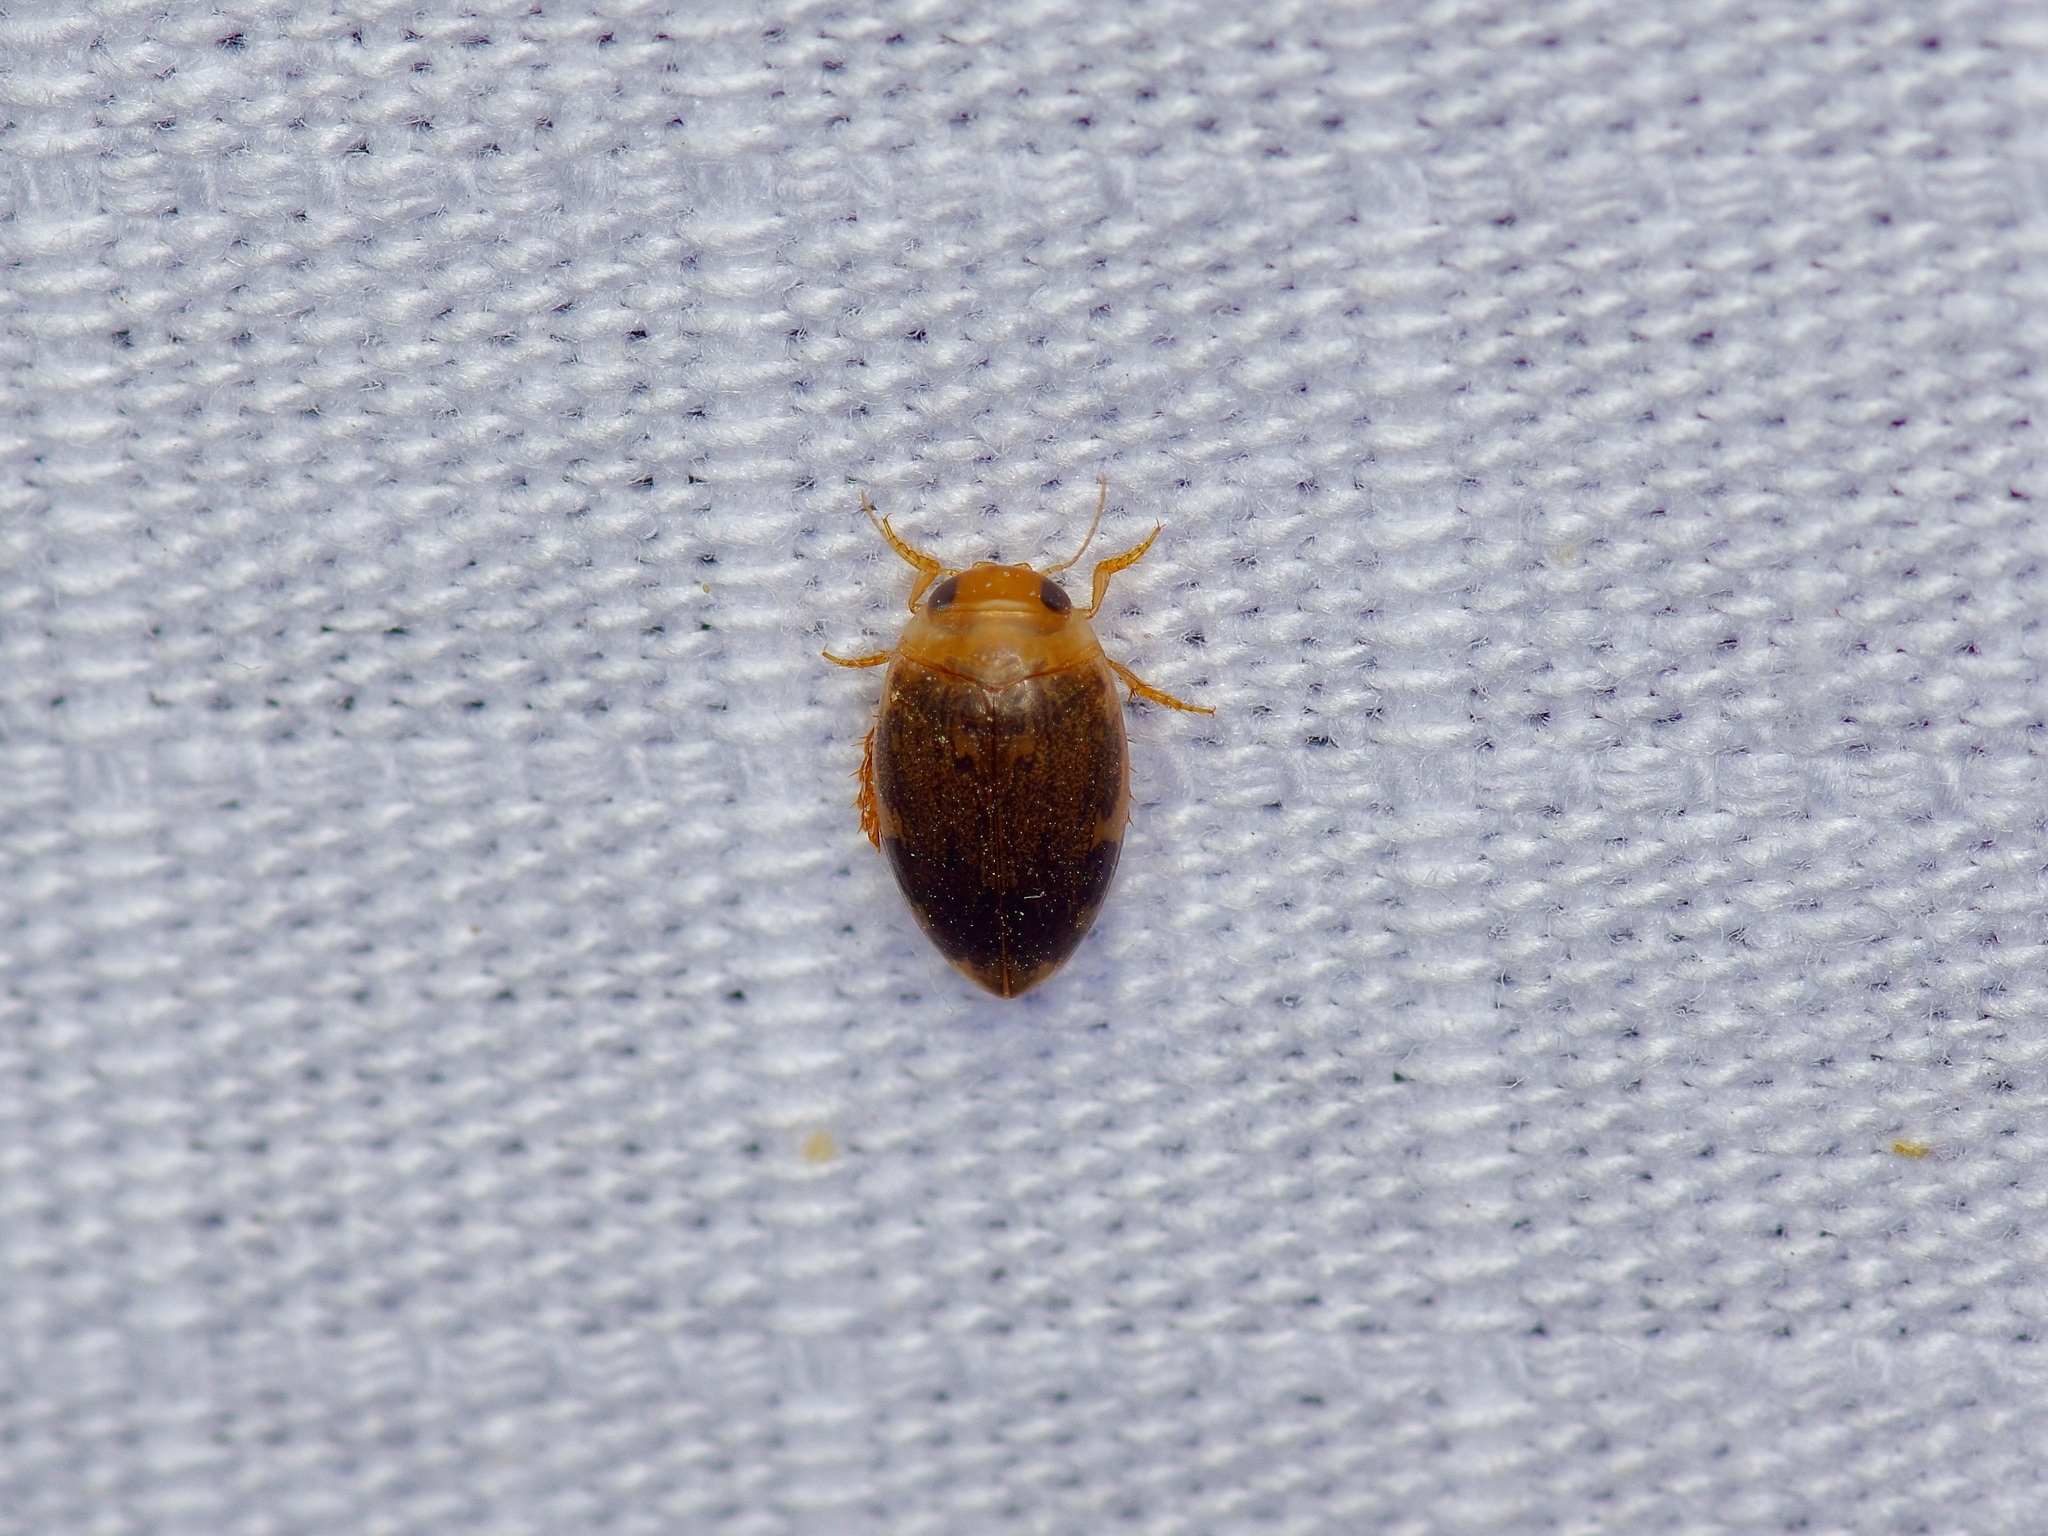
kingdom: Animalia
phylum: Arthropoda
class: Insecta
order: Coleoptera
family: Dytiscidae
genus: Laccophilus
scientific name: Laccophilus proximus
